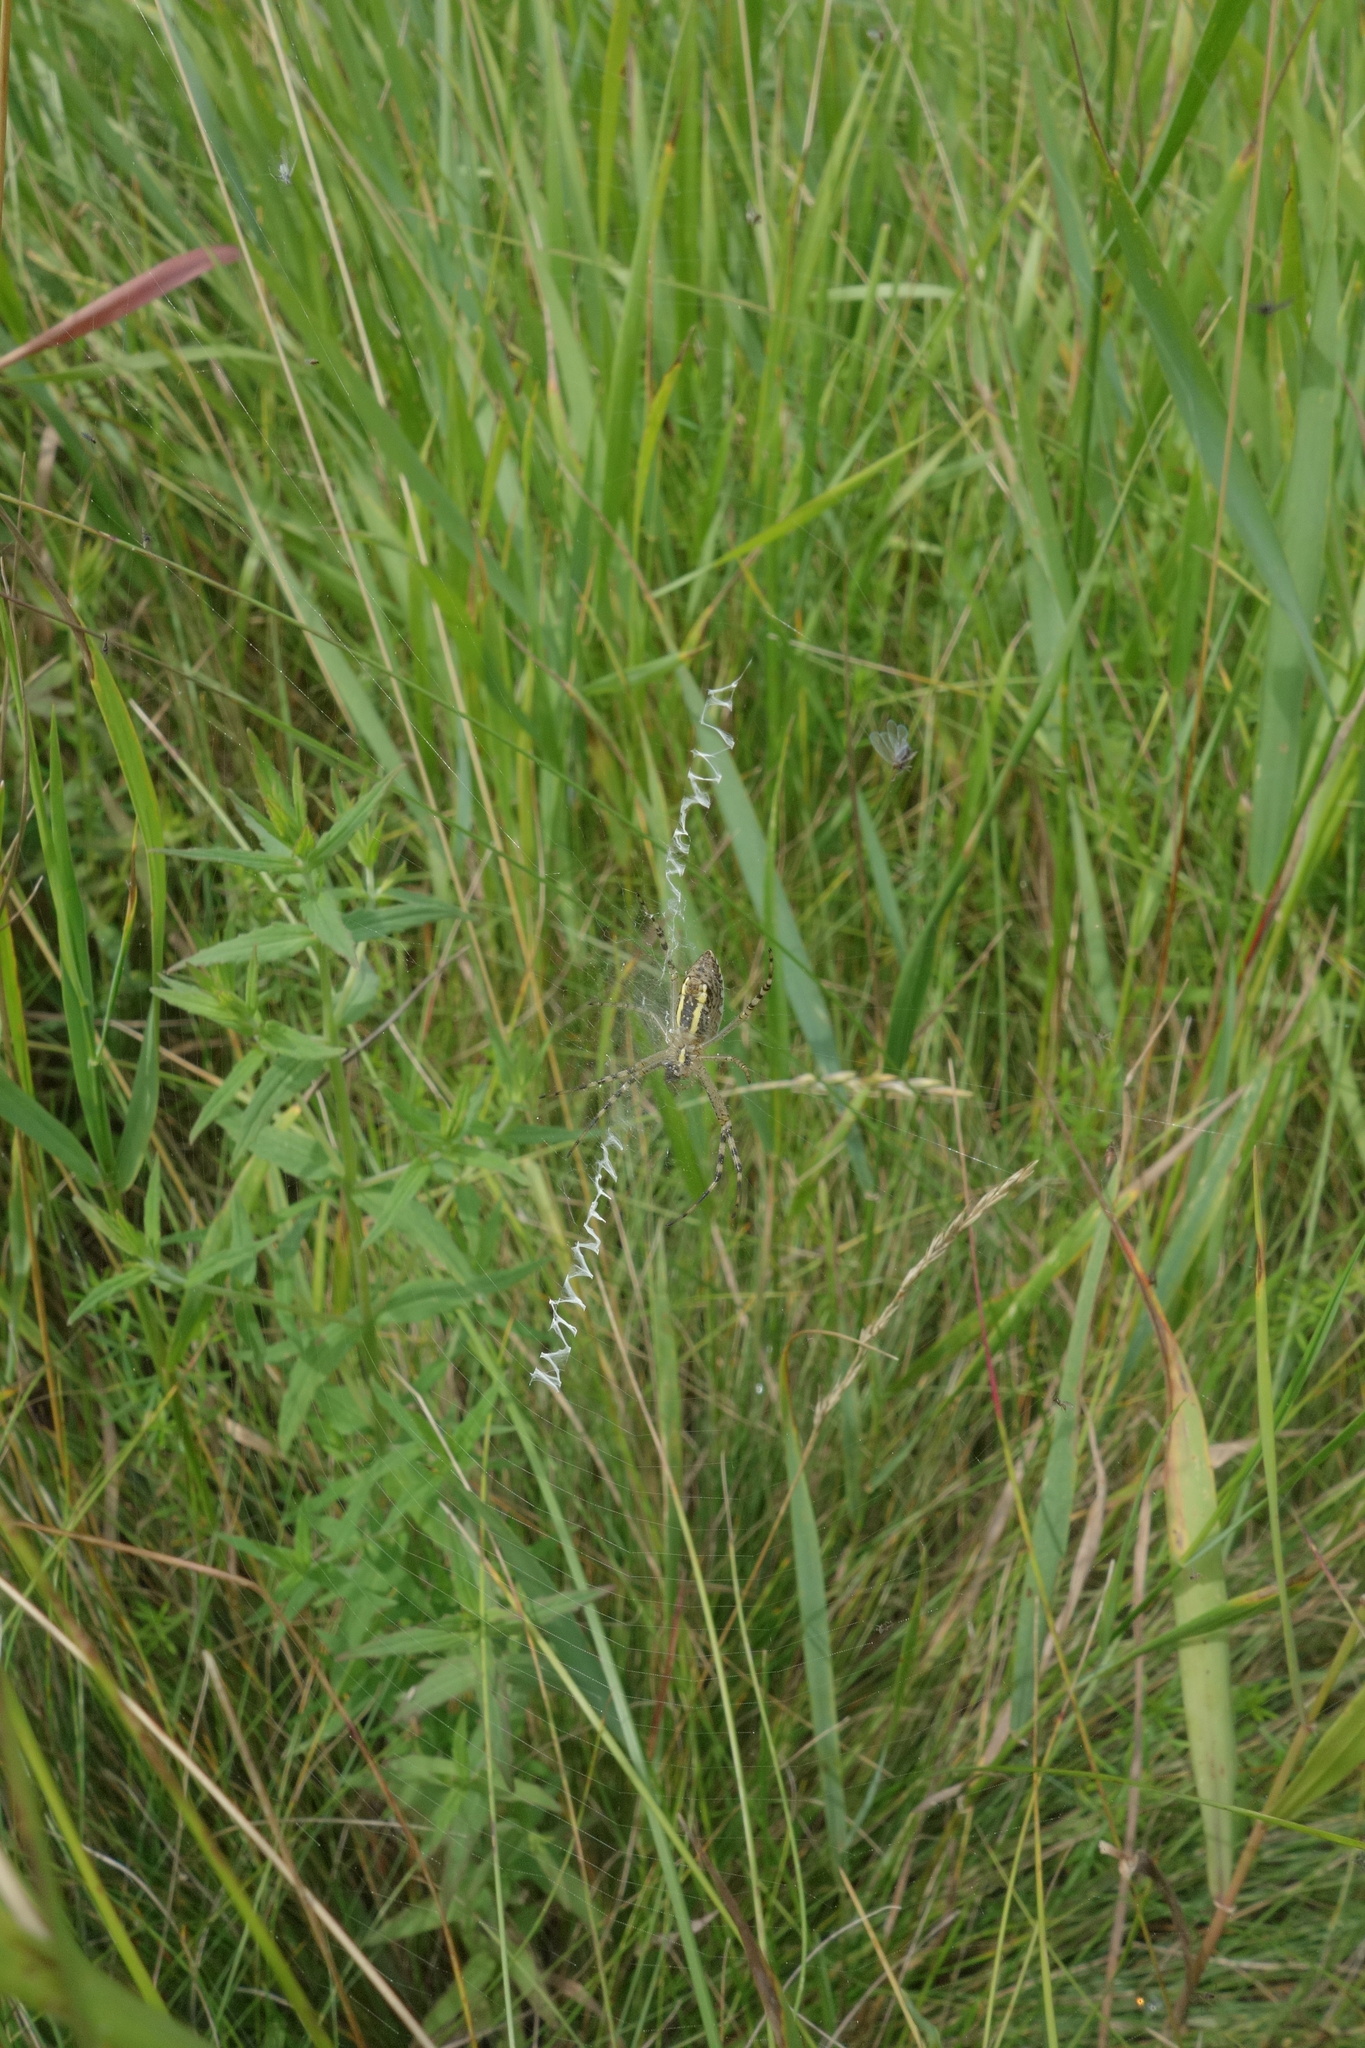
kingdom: Animalia
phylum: Arthropoda
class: Arachnida
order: Araneae
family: Araneidae
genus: Argiope
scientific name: Argiope bruennichi
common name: Wasp spider
